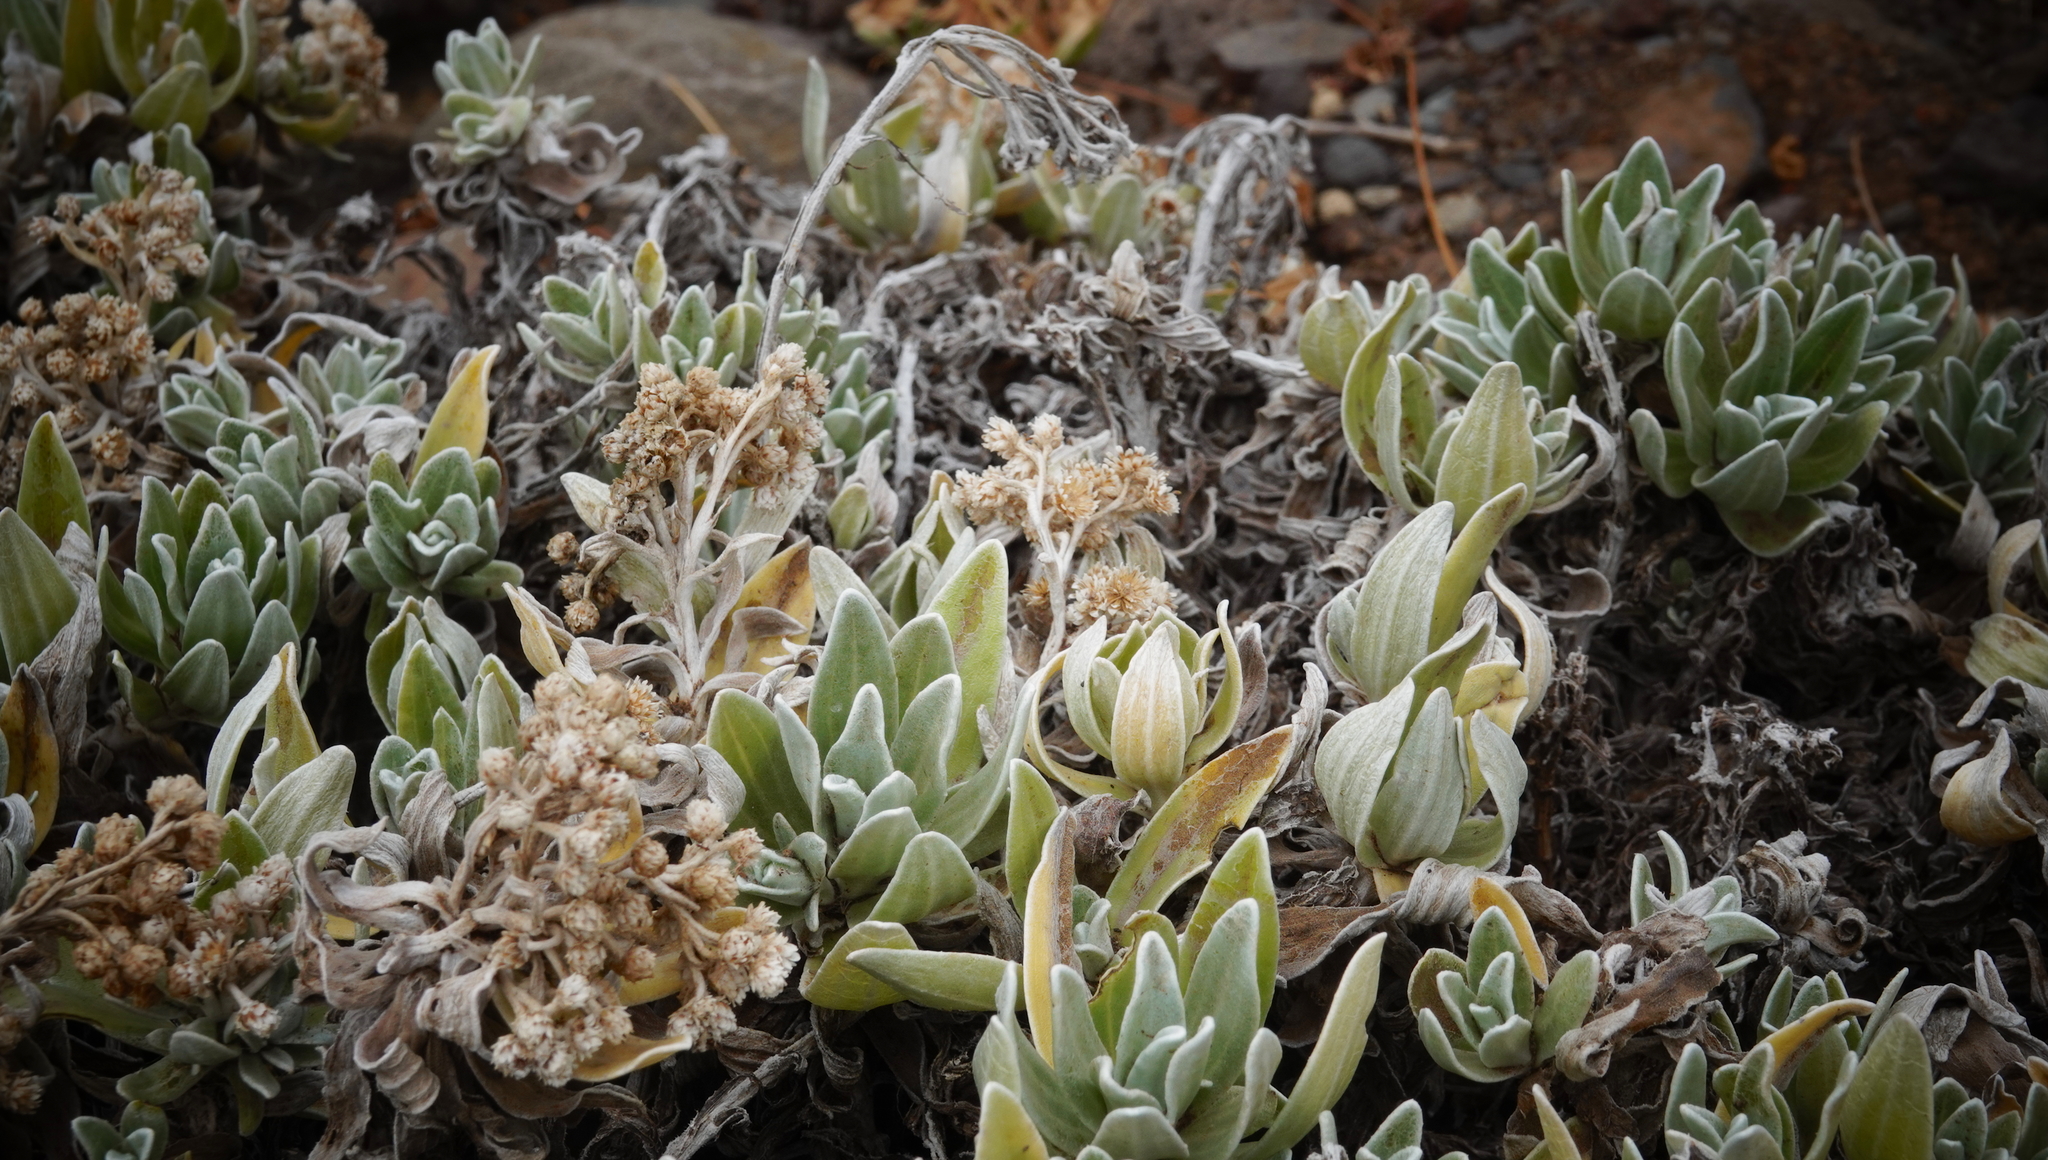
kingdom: Plantae
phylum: Tracheophyta
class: Magnoliopsida
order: Asterales
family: Asteraceae
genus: Helichrysum
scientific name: Helichrysum devium
